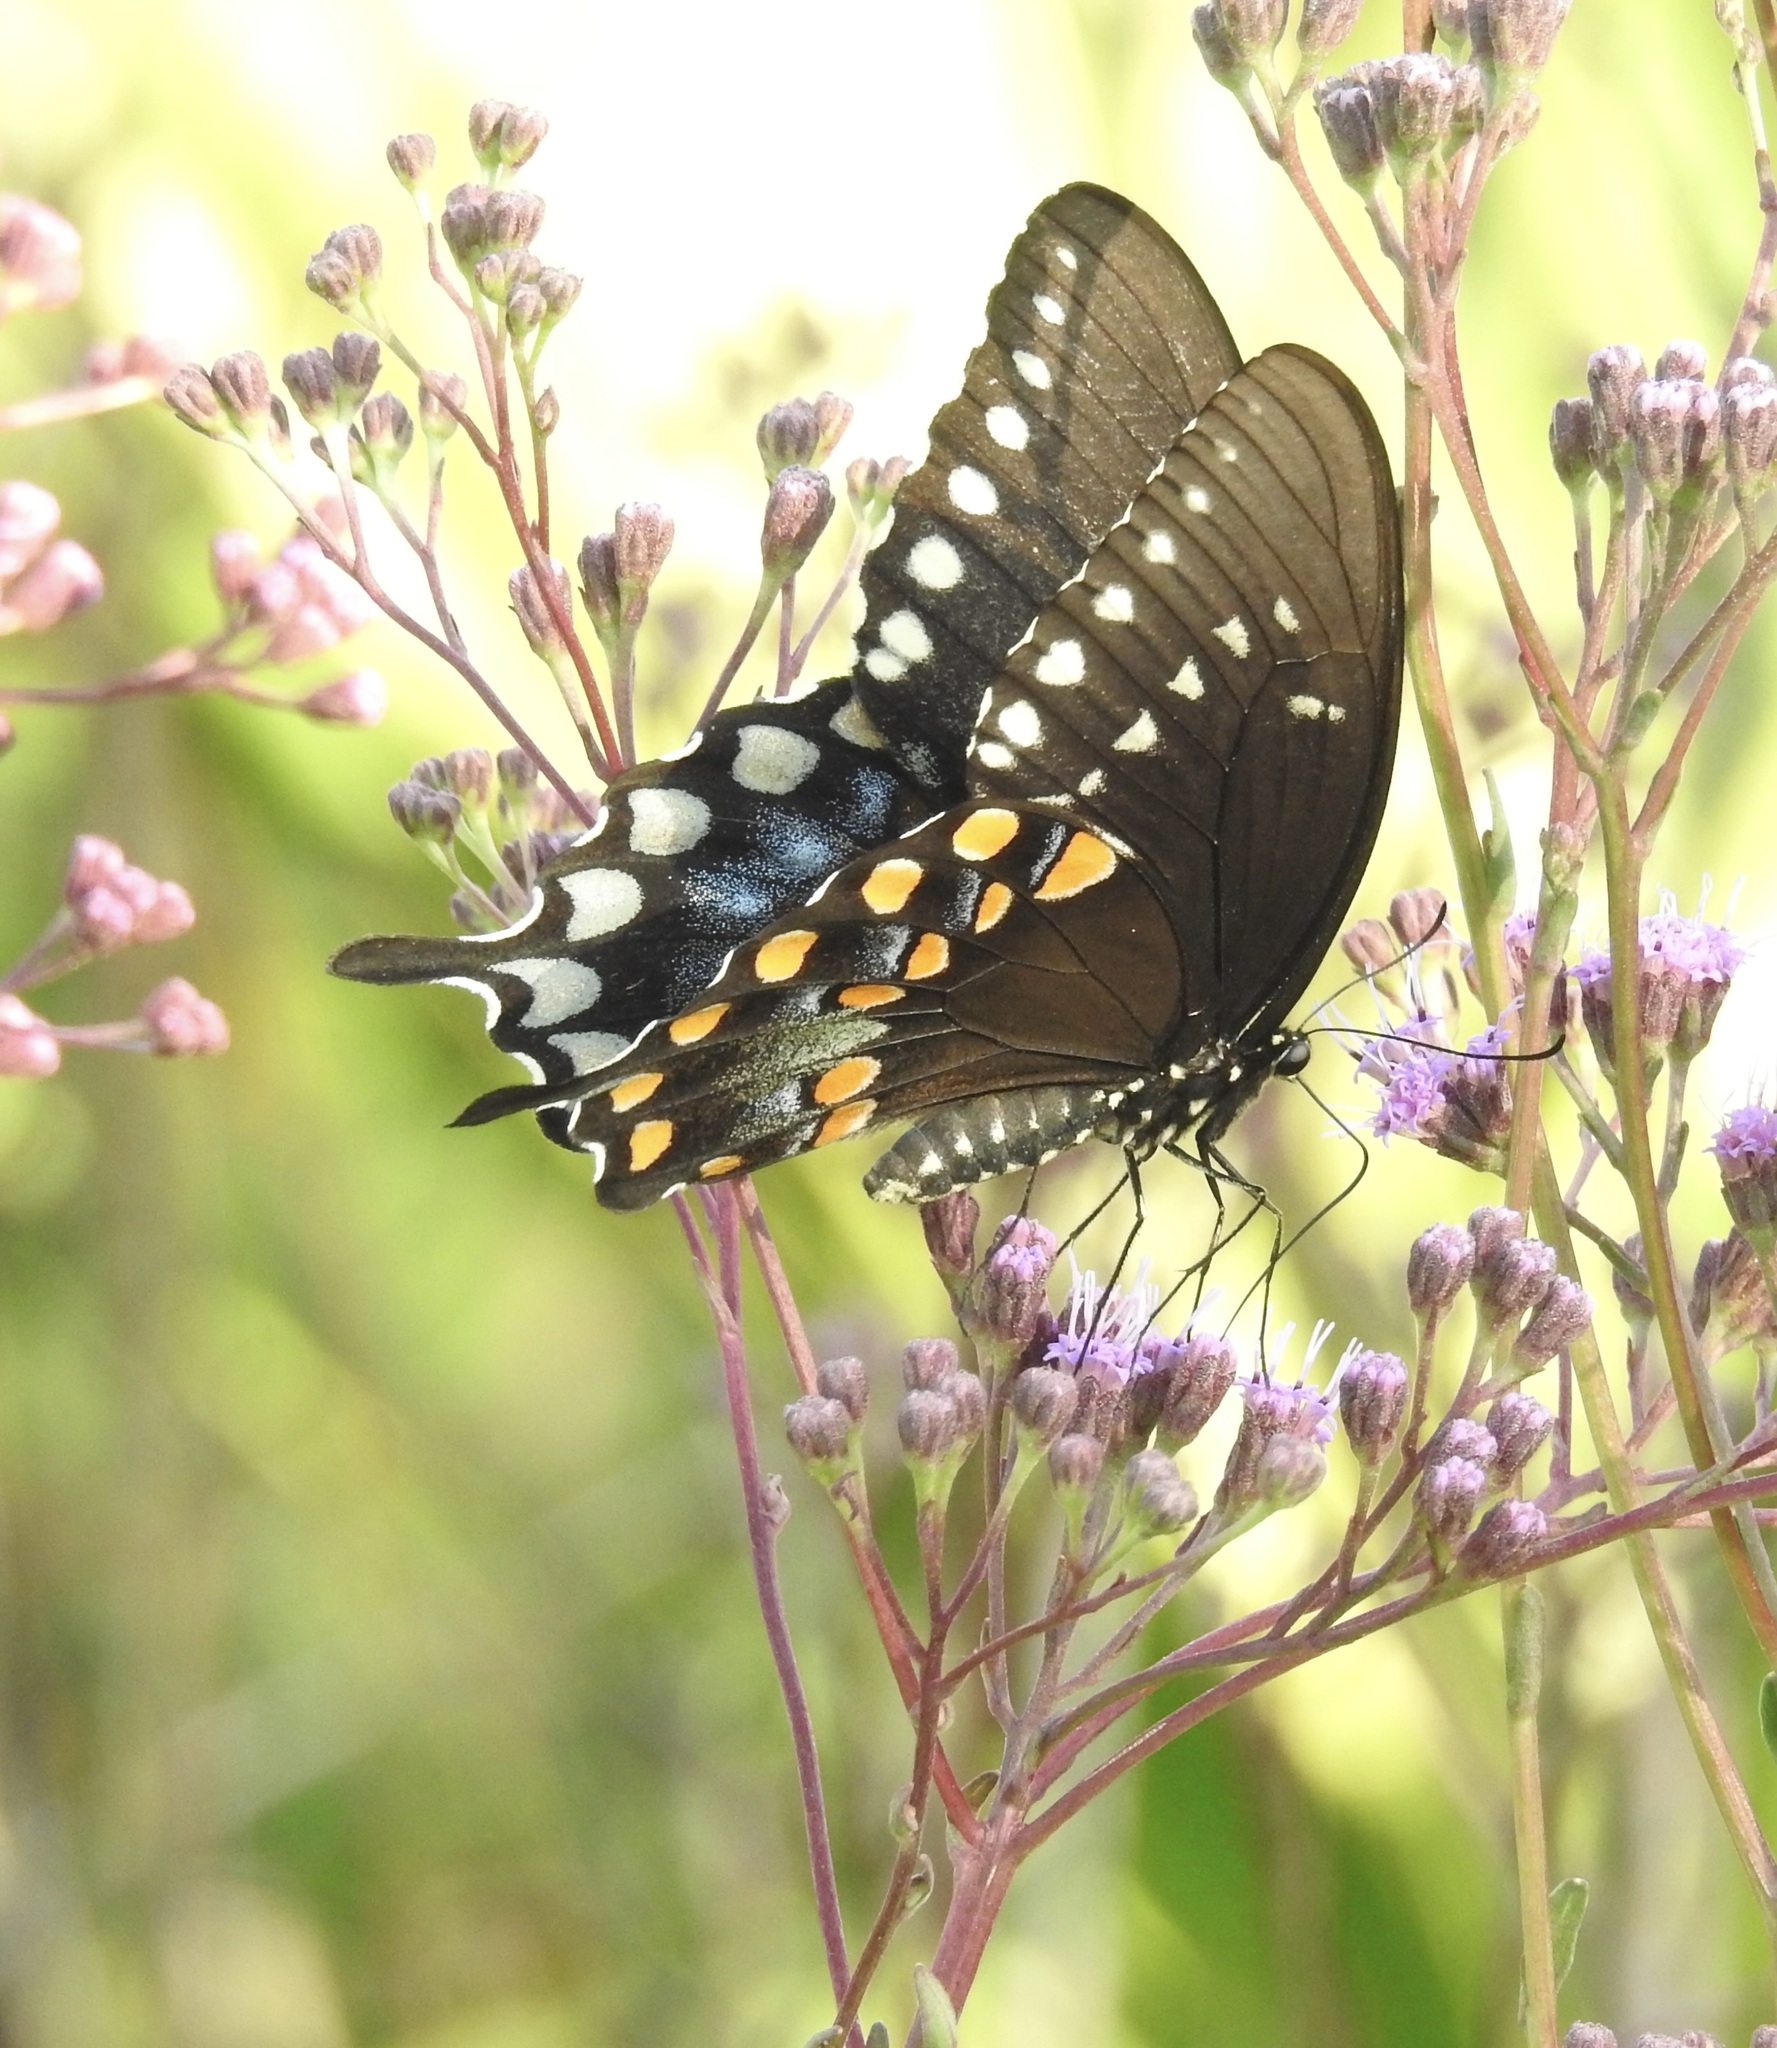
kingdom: Animalia
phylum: Arthropoda
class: Insecta
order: Lepidoptera
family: Papilionidae
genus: Papilio
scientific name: Papilio troilus
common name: Spicebush swallowtail
